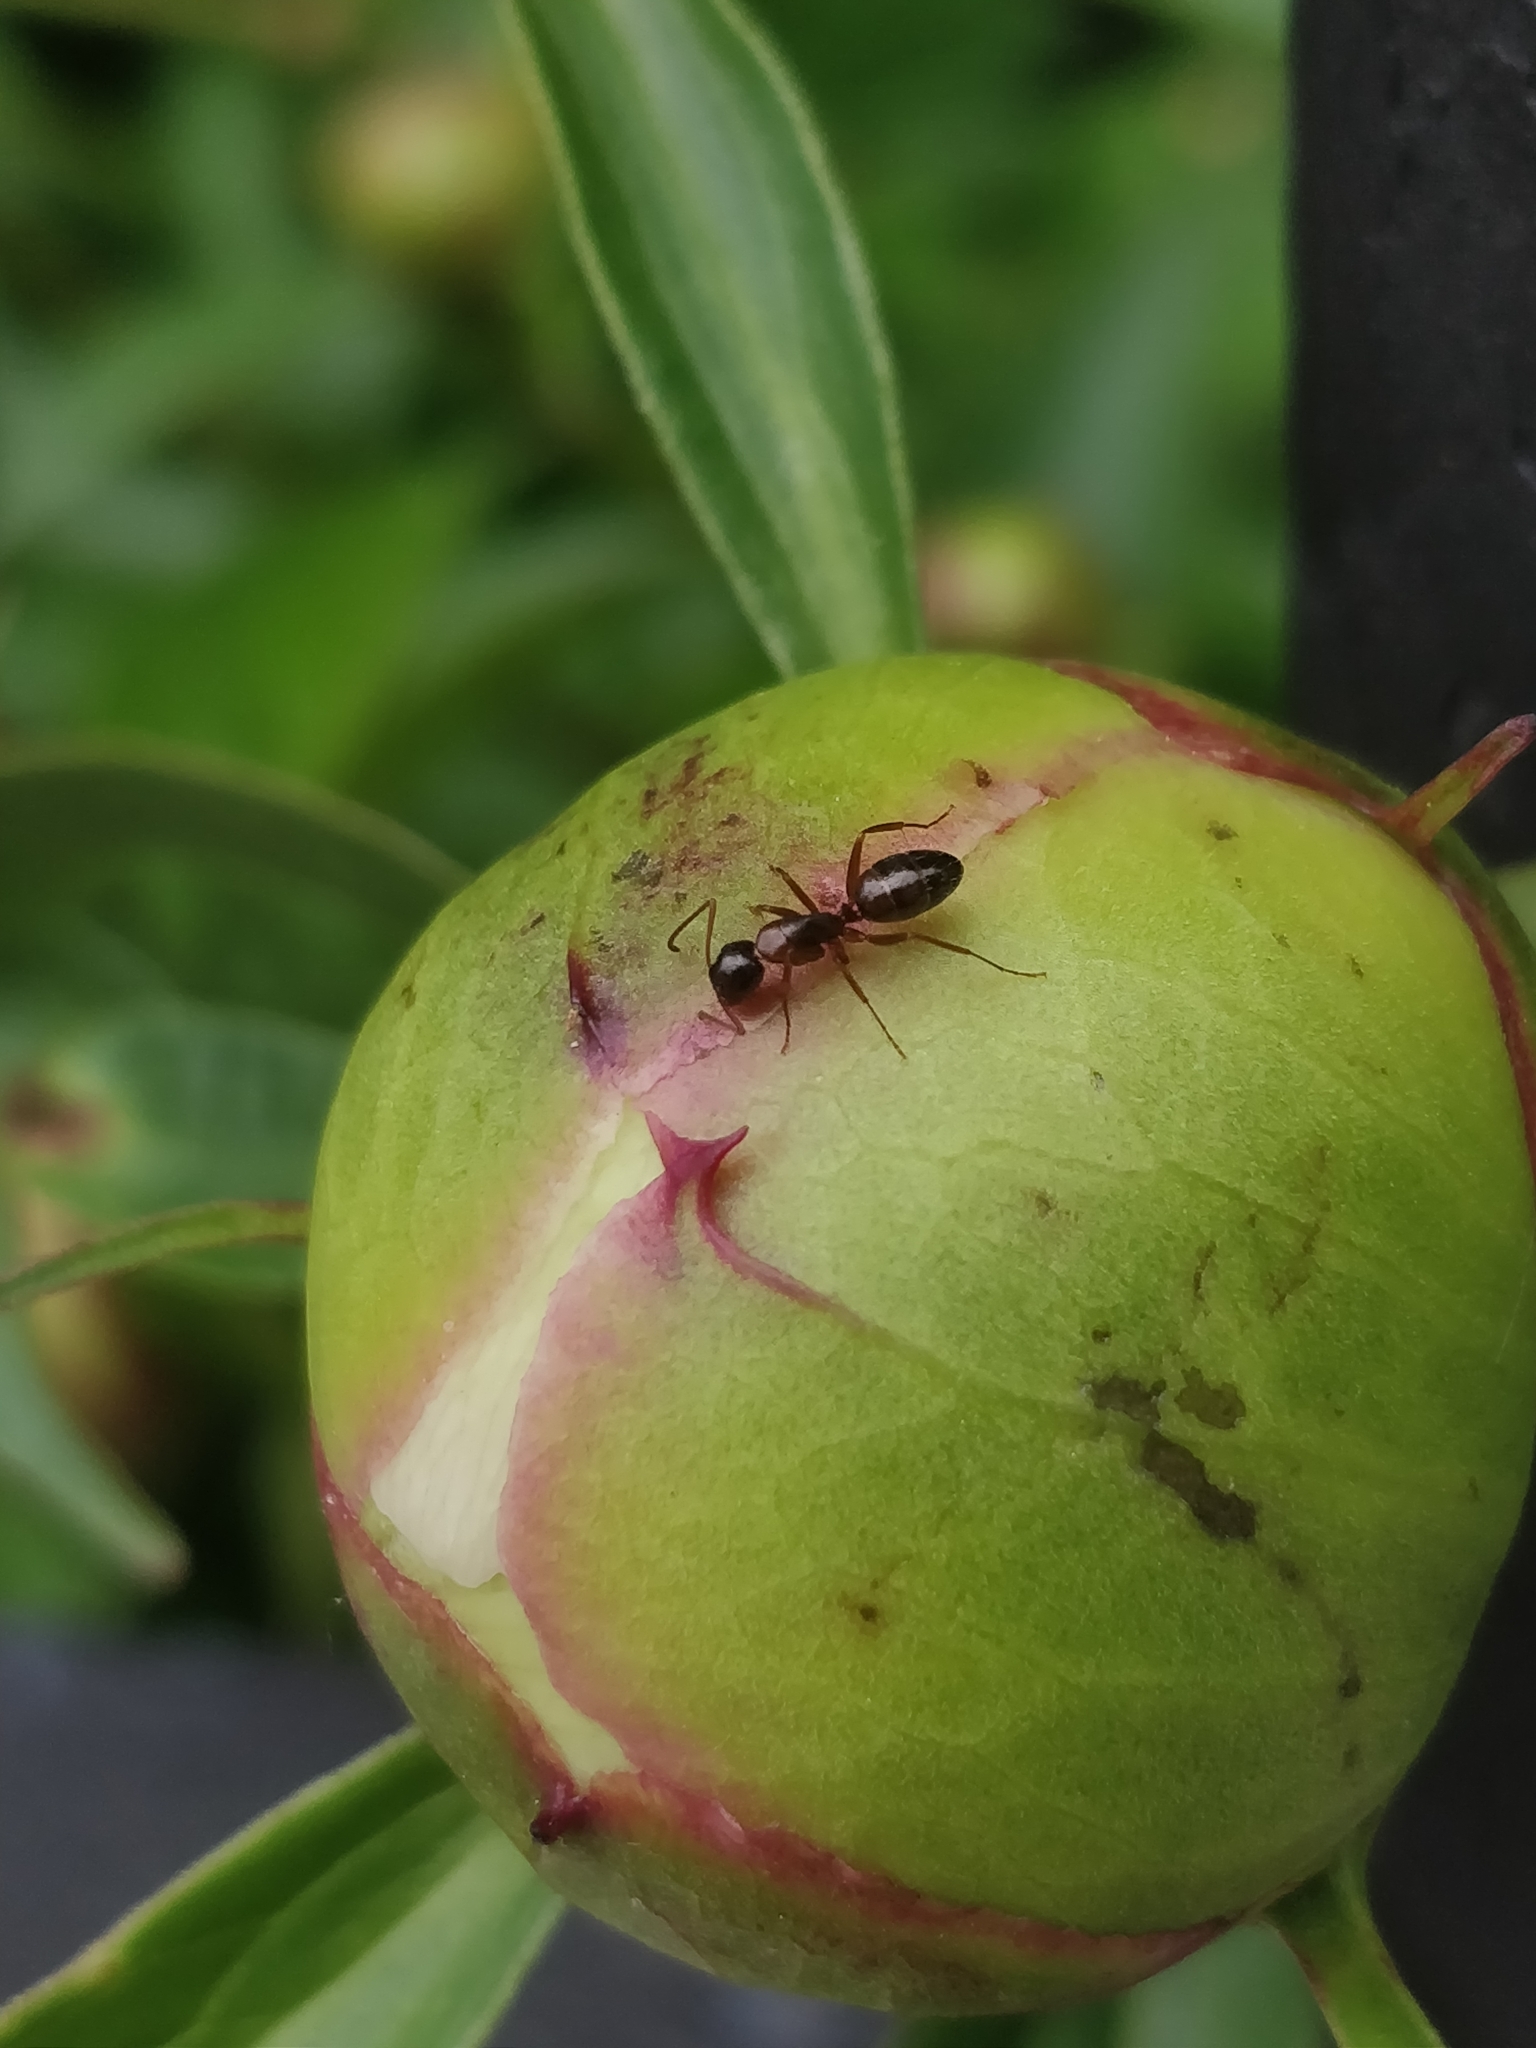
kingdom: Animalia
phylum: Arthropoda
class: Insecta
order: Hymenoptera
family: Formicidae
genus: Camponotus
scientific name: Camponotus nearcticus
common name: Smaller carpenter ant
